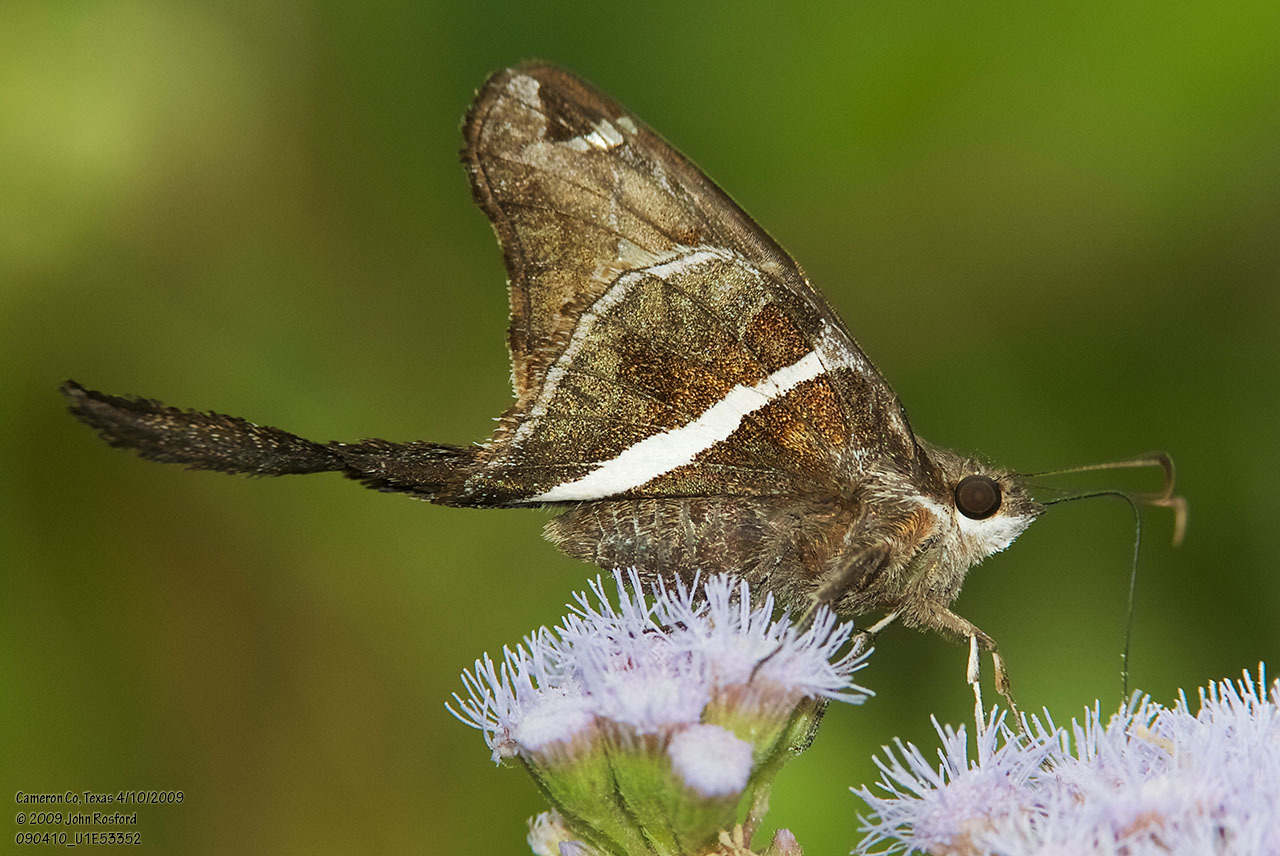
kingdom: Animalia
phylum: Arthropoda
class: Insecta
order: Lepidoptera
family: Hesperiidae
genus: Chioides
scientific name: Chioides catillus
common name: Silverbanded skipper
